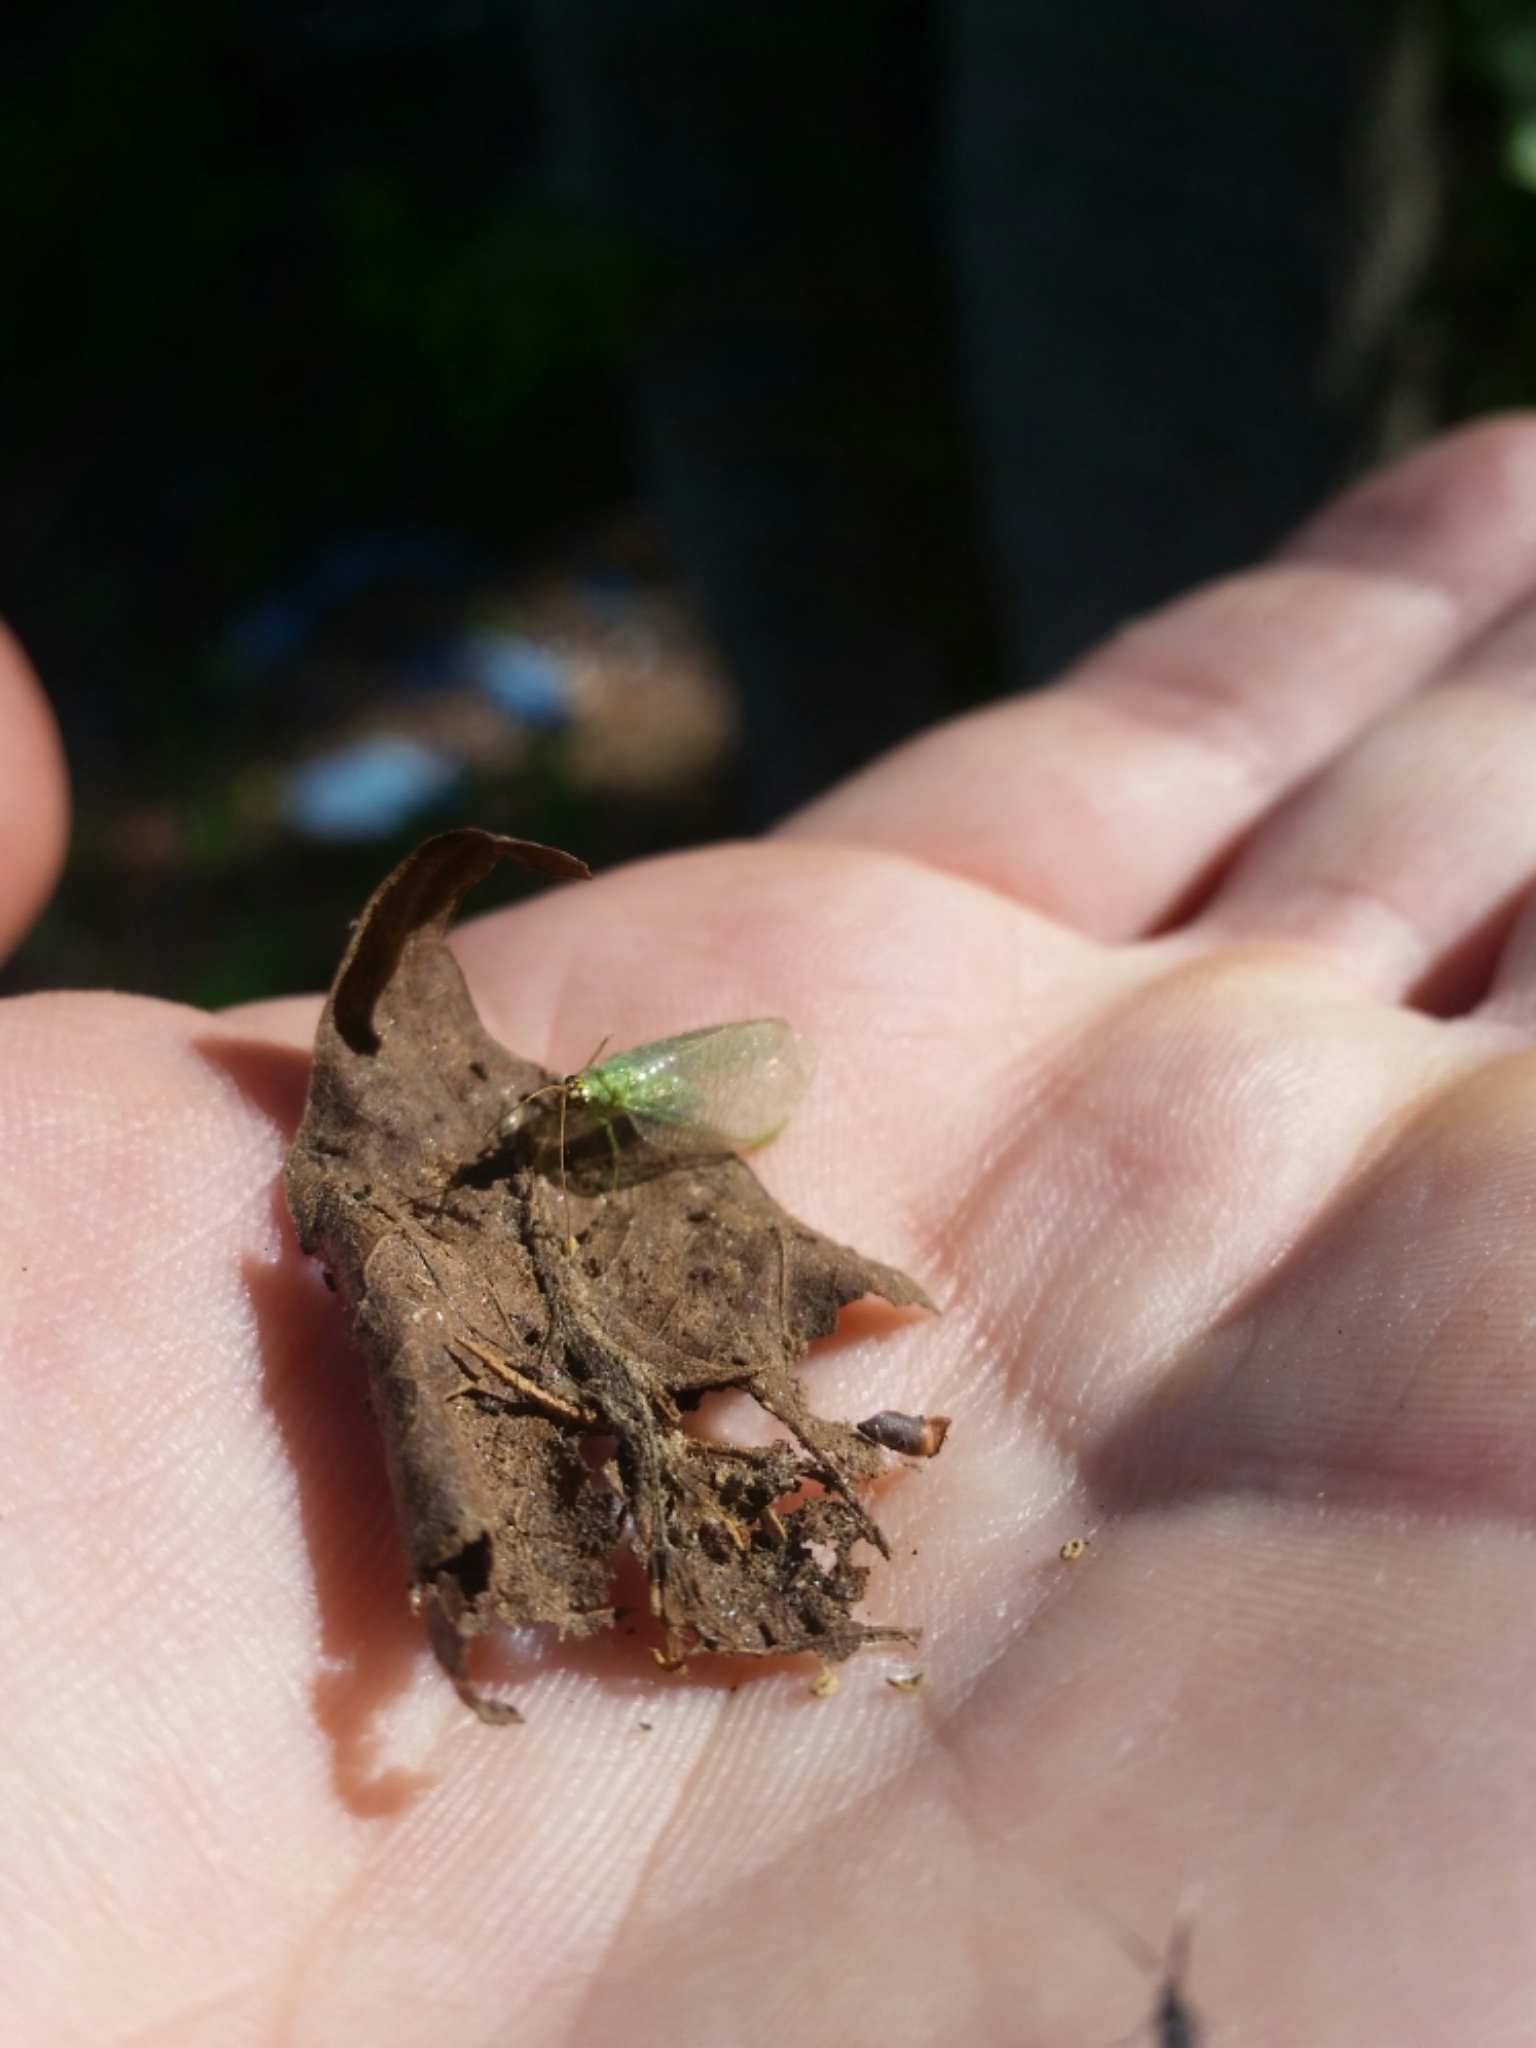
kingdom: Animalia
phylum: Arthropoda
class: Insecta
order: Neuroptera
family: Chrysopidae
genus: Chrysopa
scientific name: Chrysopa oculata
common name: Golden-eyed lacewing
